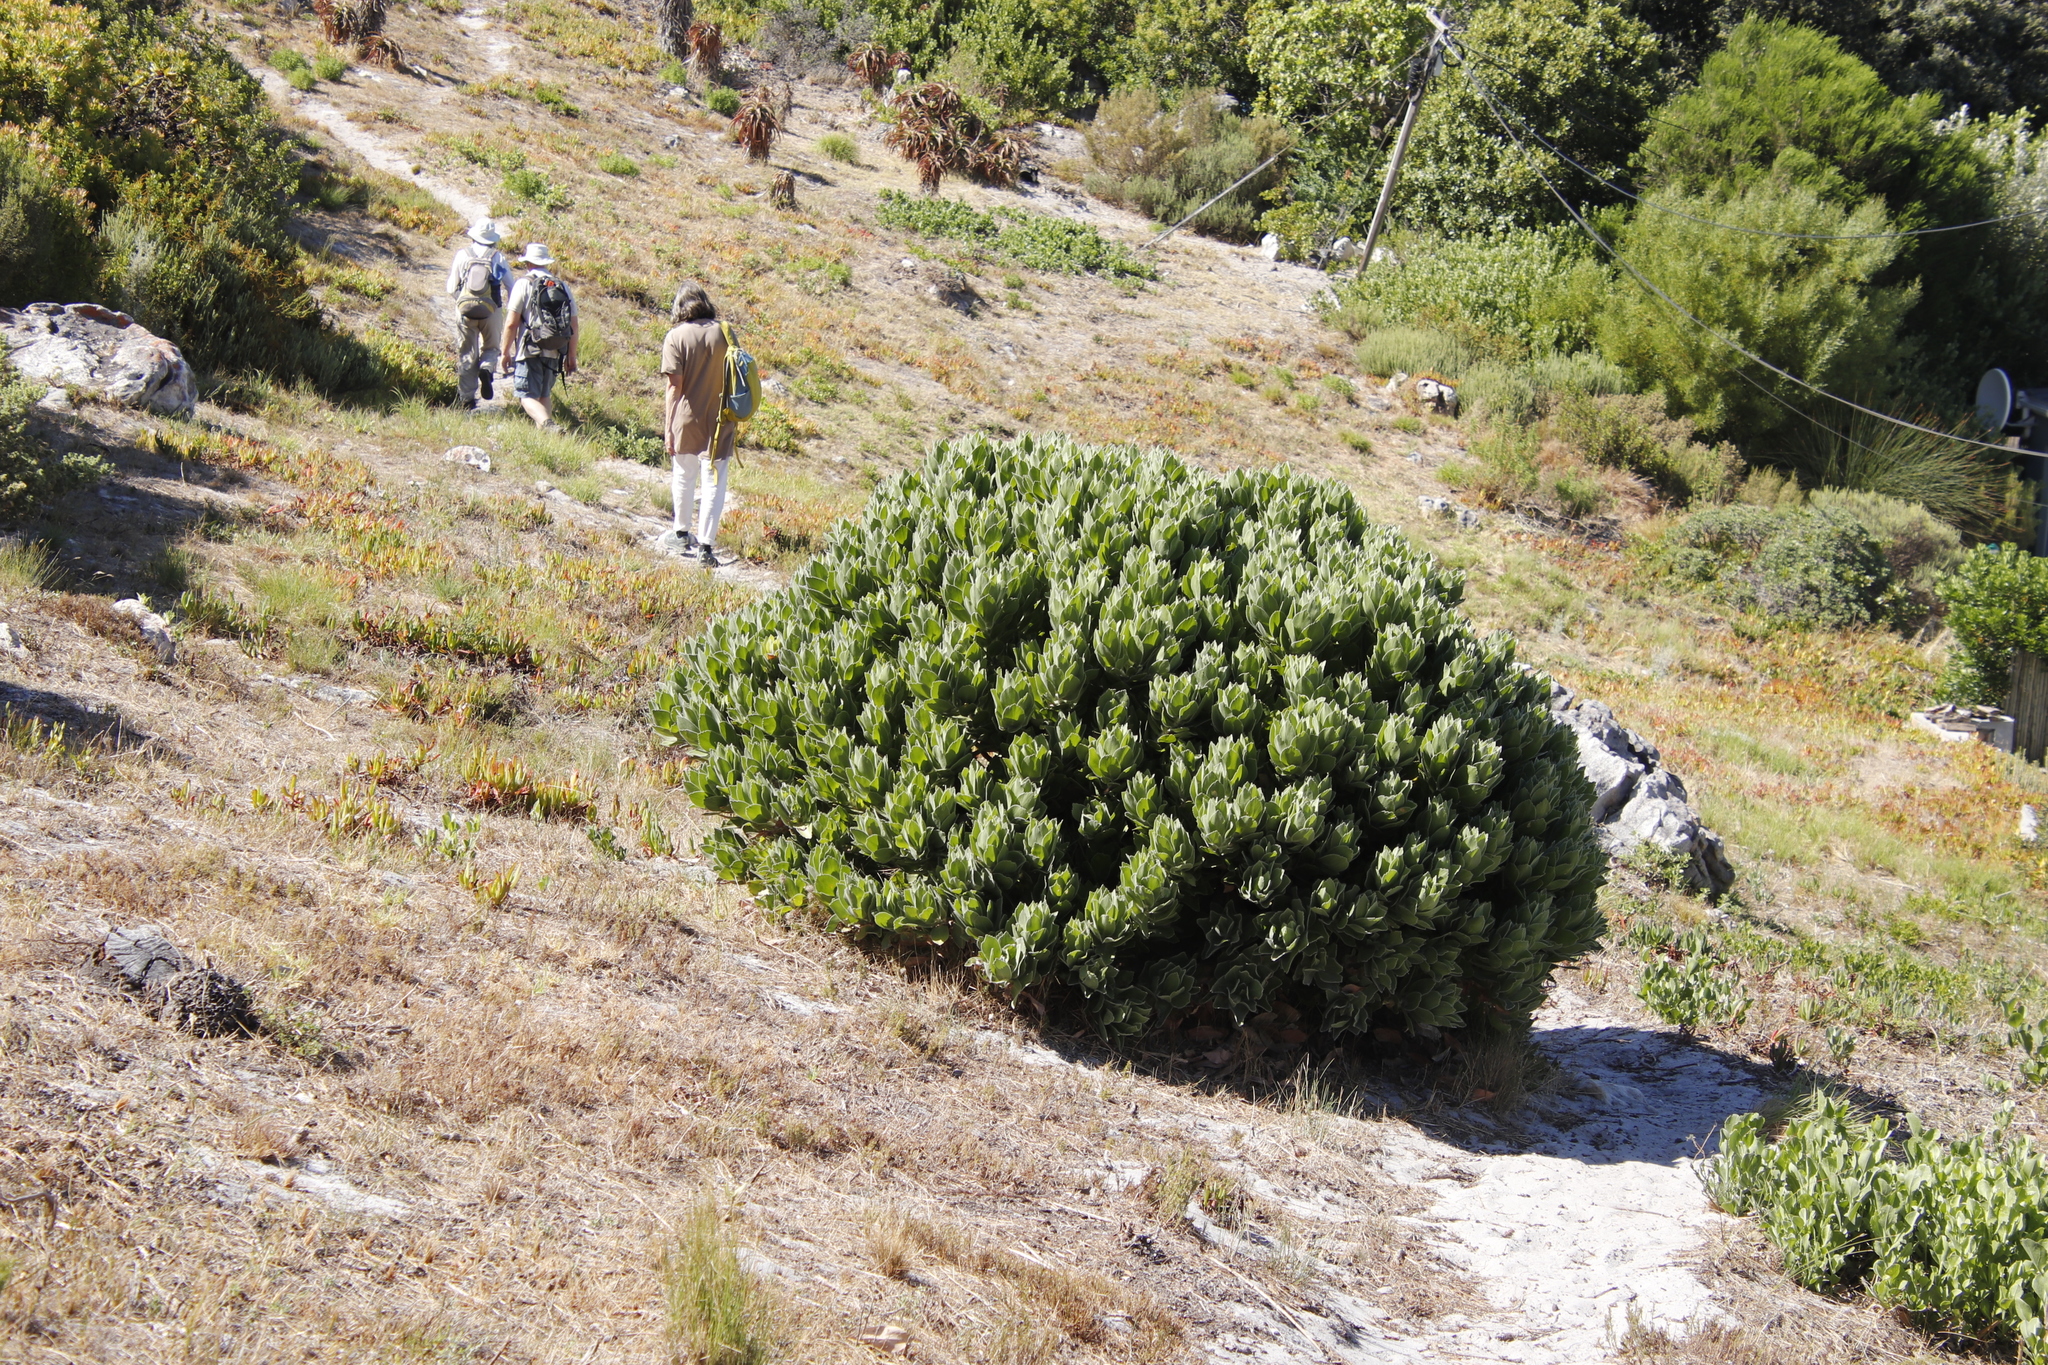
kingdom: Plantae
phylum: Tracheophyta
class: Magnoliopsida
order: Proteales
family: Proteaceae
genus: Leucospermum
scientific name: Leucospermum conocarpodendron
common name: Tree pincushion
